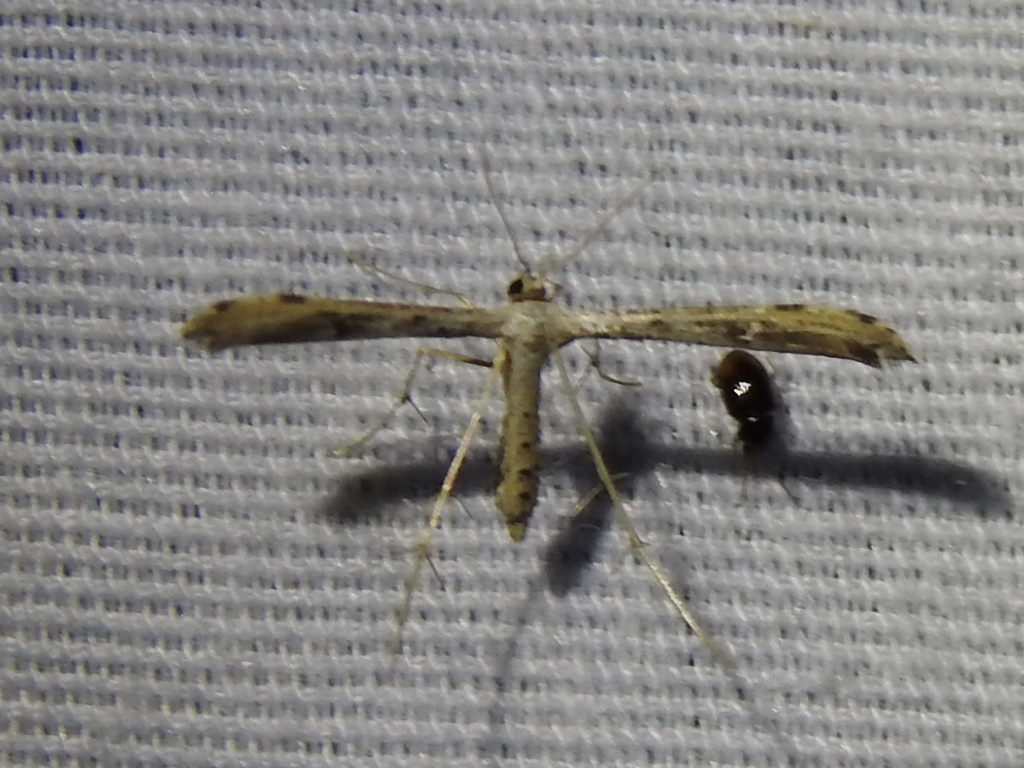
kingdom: Animalia
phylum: Arthropoda
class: Insecta
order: Lepidoptera
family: Pterophoridae
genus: Adaina
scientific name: Adaina ambrosiae
